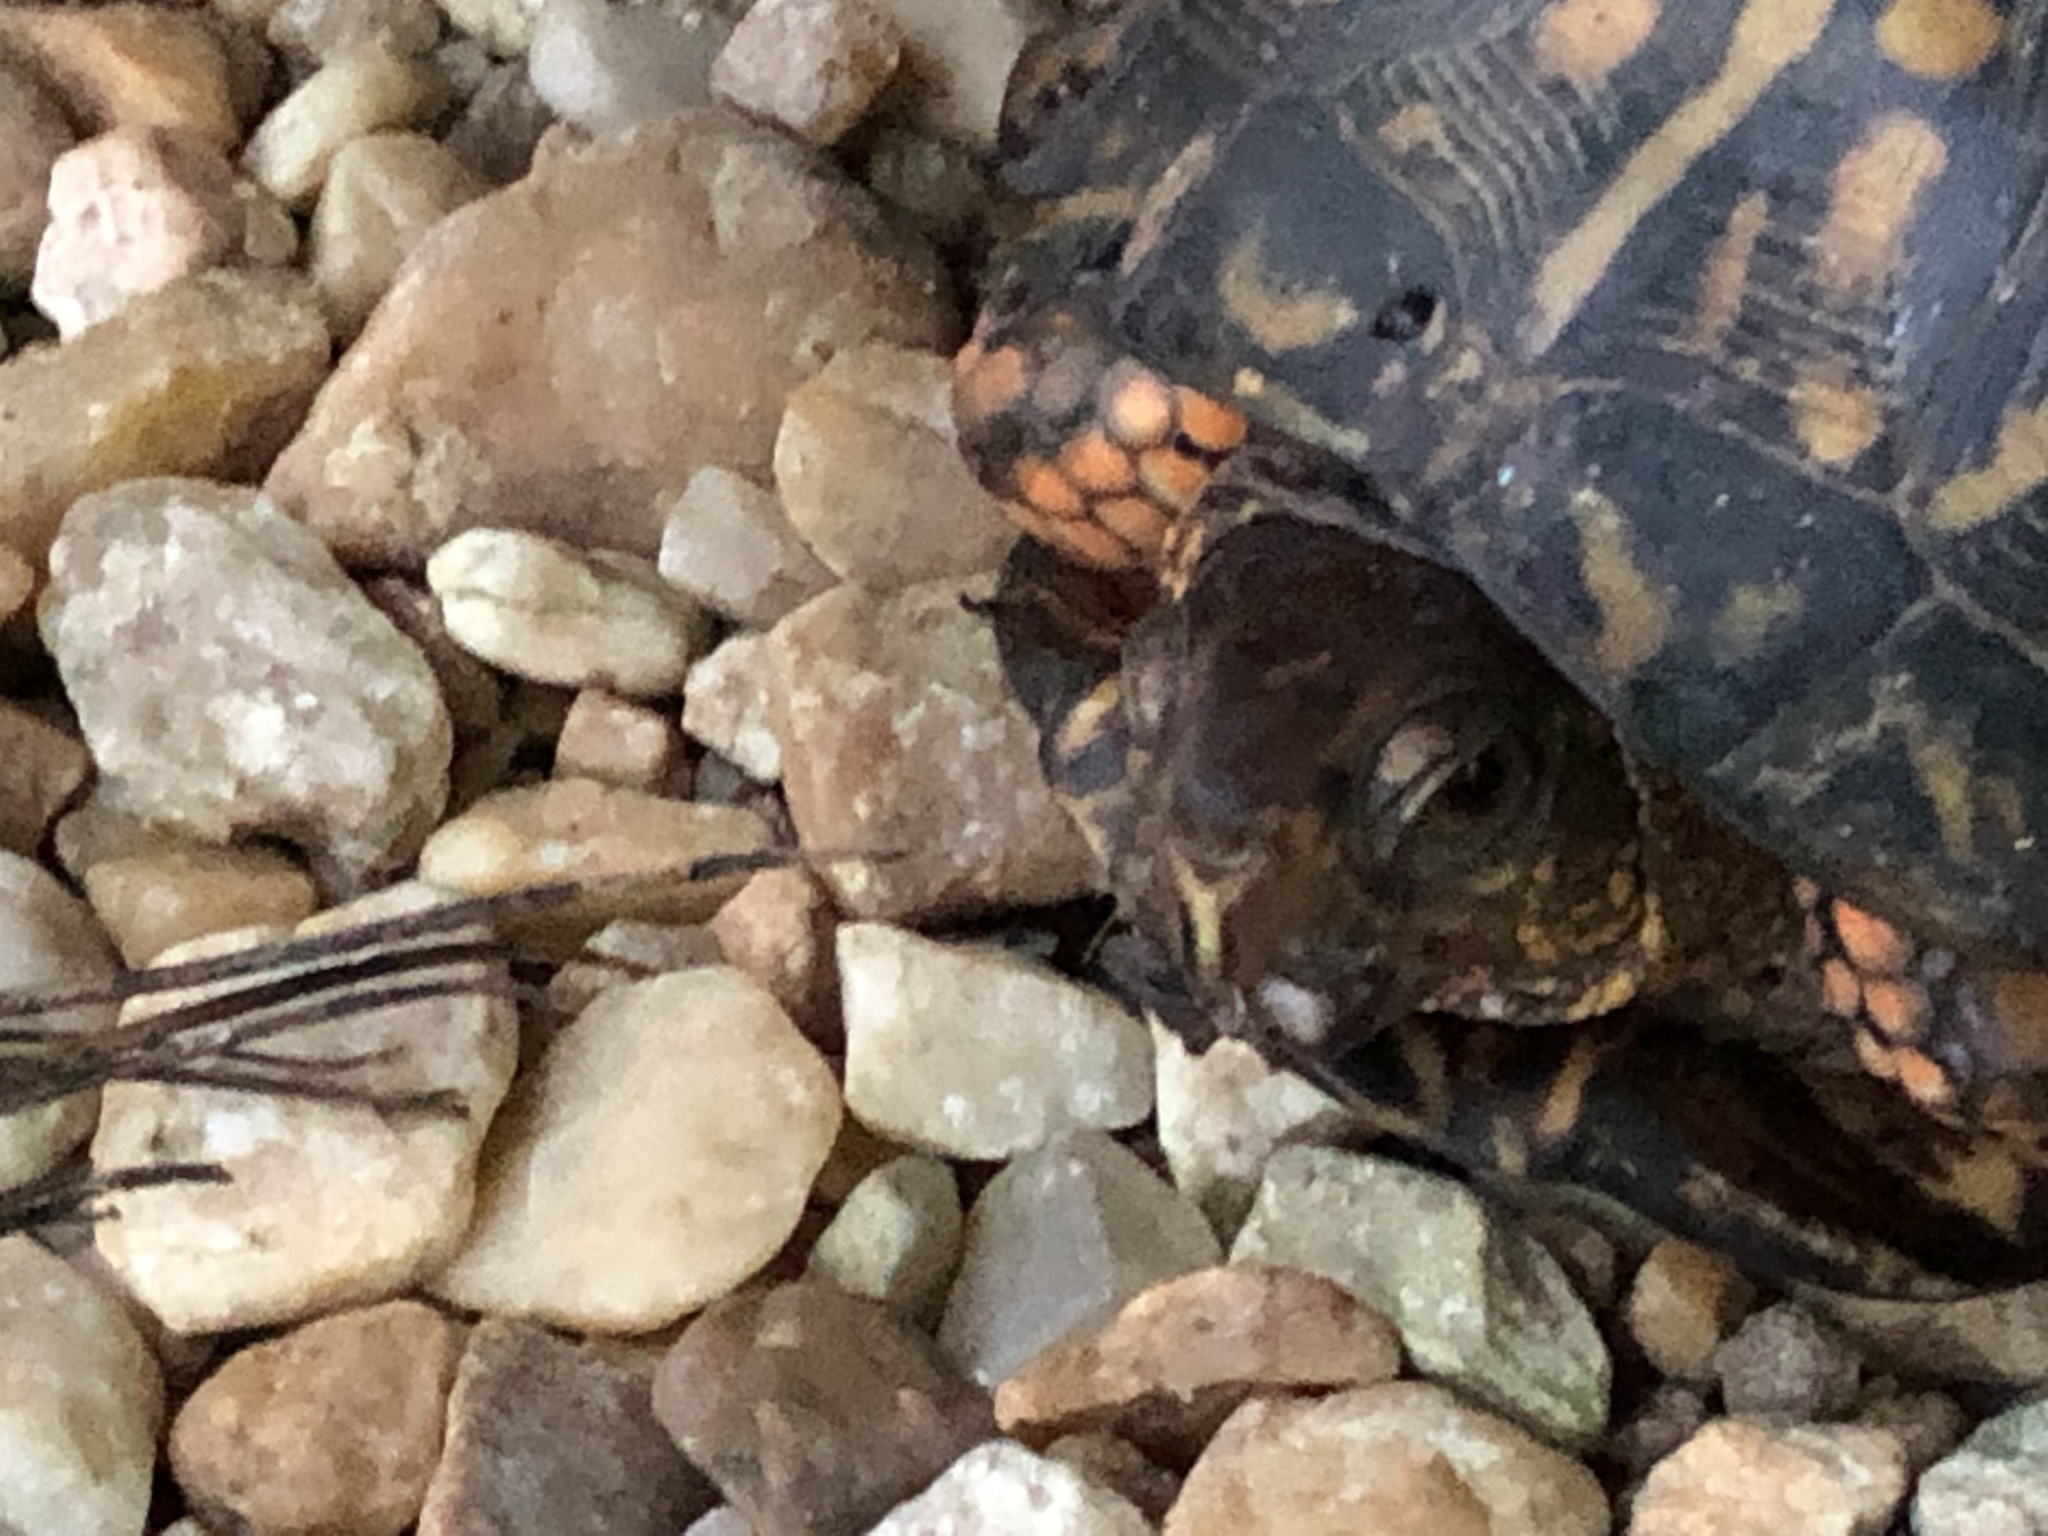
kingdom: Animalia
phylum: Chordata
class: Testudines
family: Emydidae
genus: Terrapene
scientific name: Terrapene carolina
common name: Common box turtle
